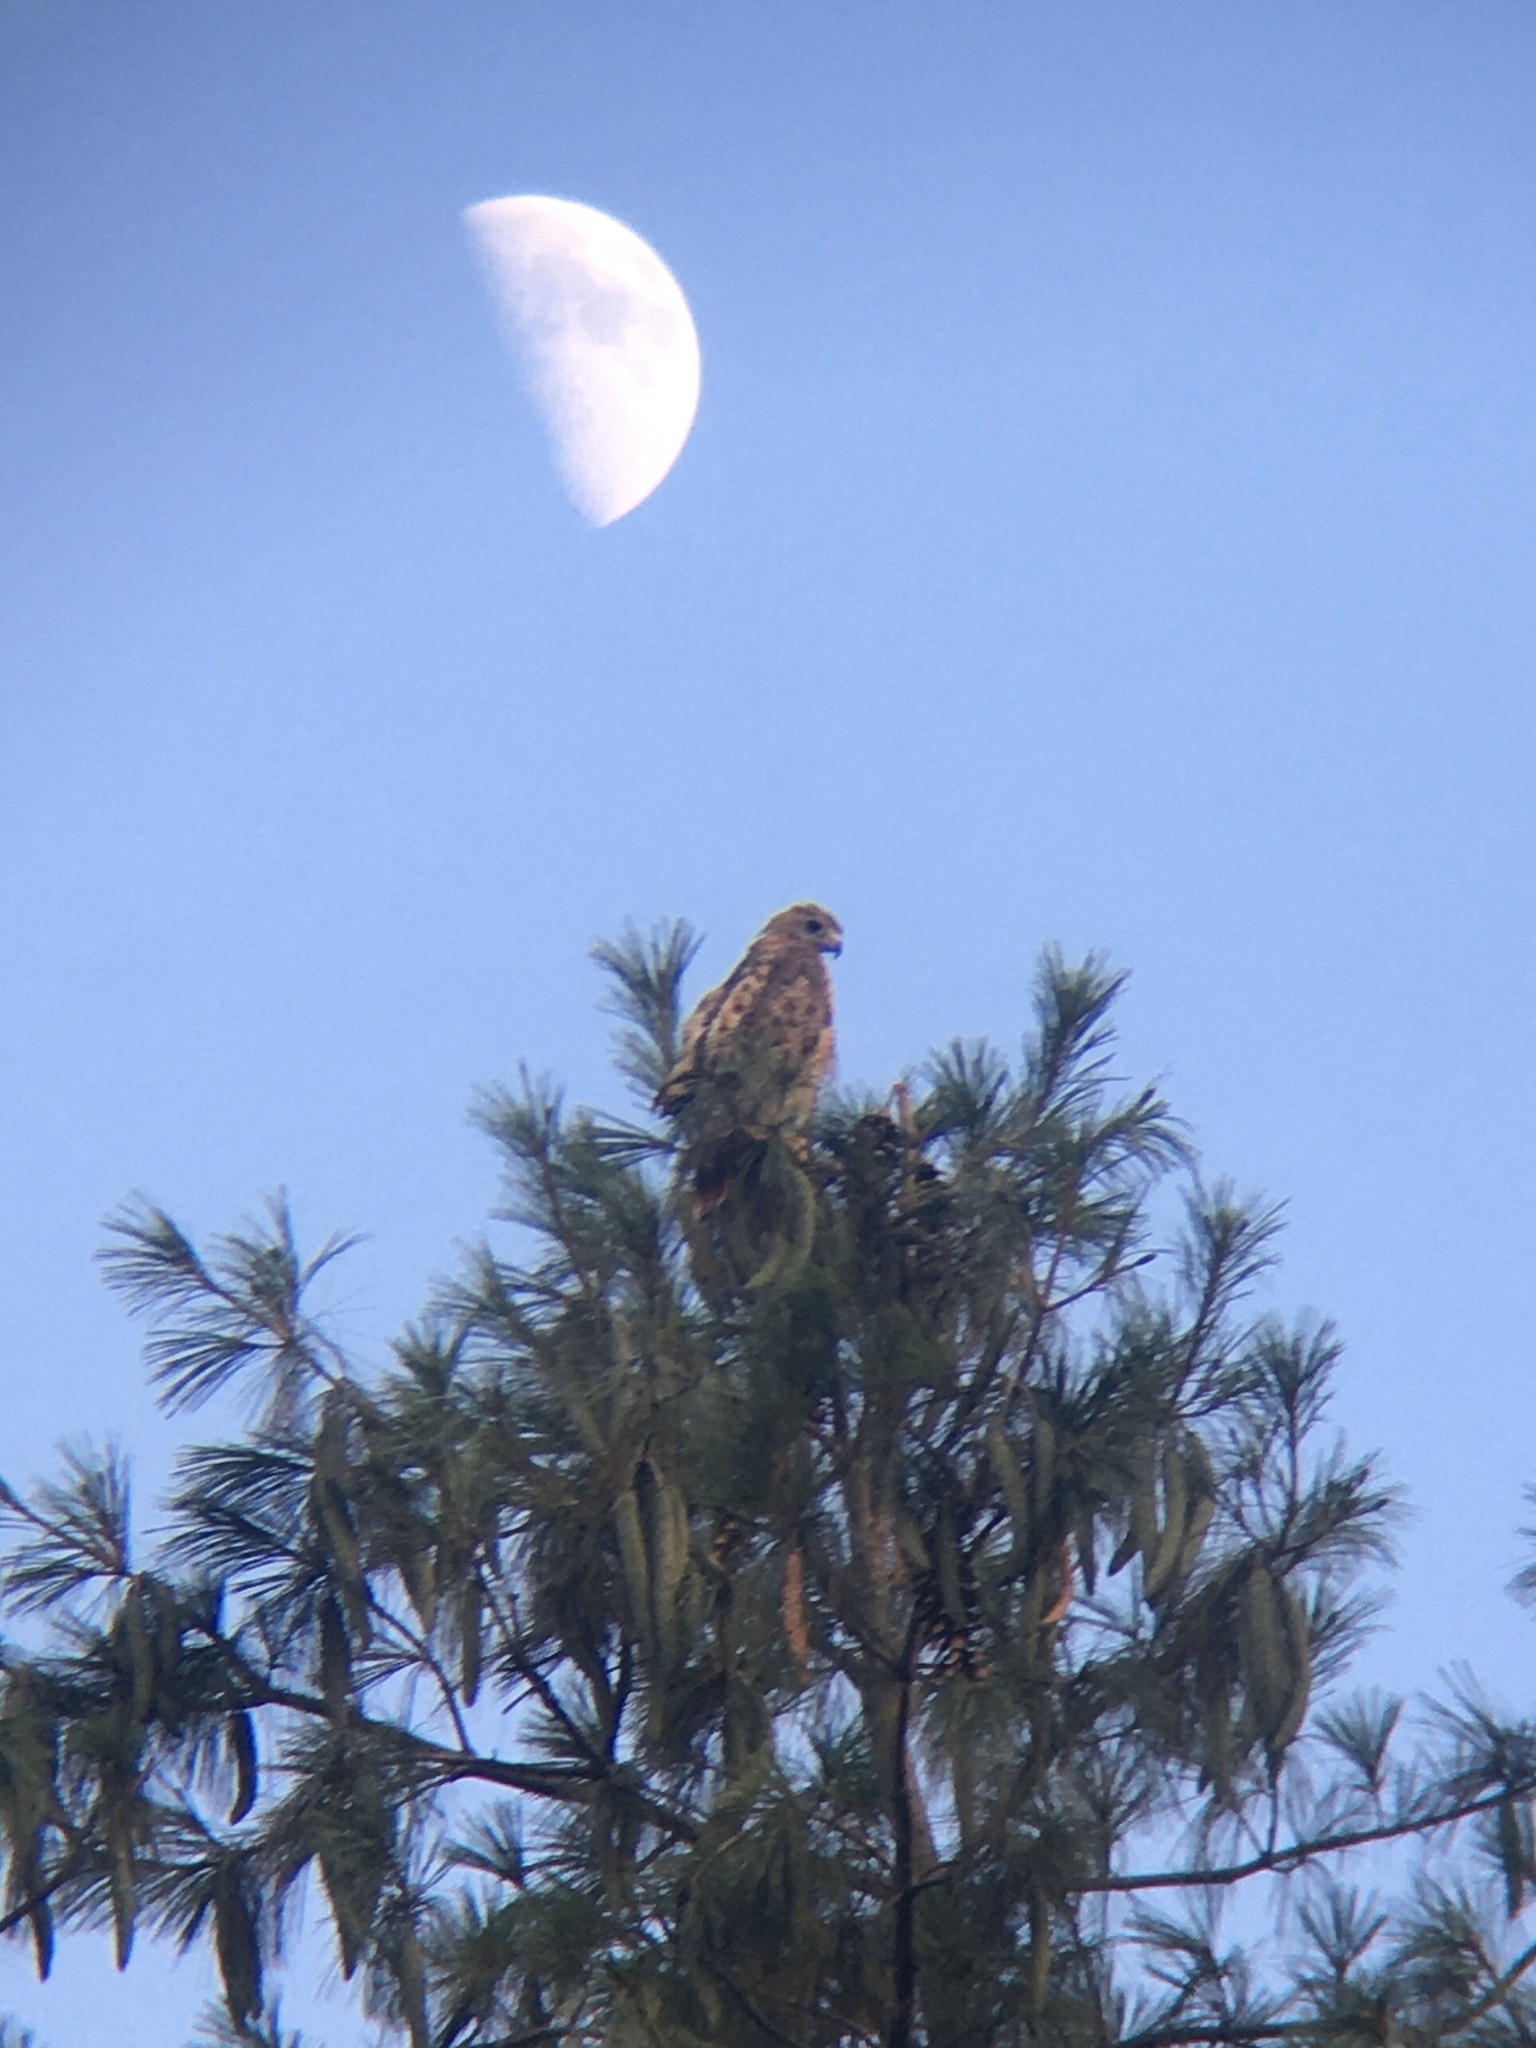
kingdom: Animalia
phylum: Chordata
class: Aves
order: Accipitriformes
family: Accipitridae
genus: Buteo
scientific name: Buteo jamaicensis
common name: Red-tailed hawk
